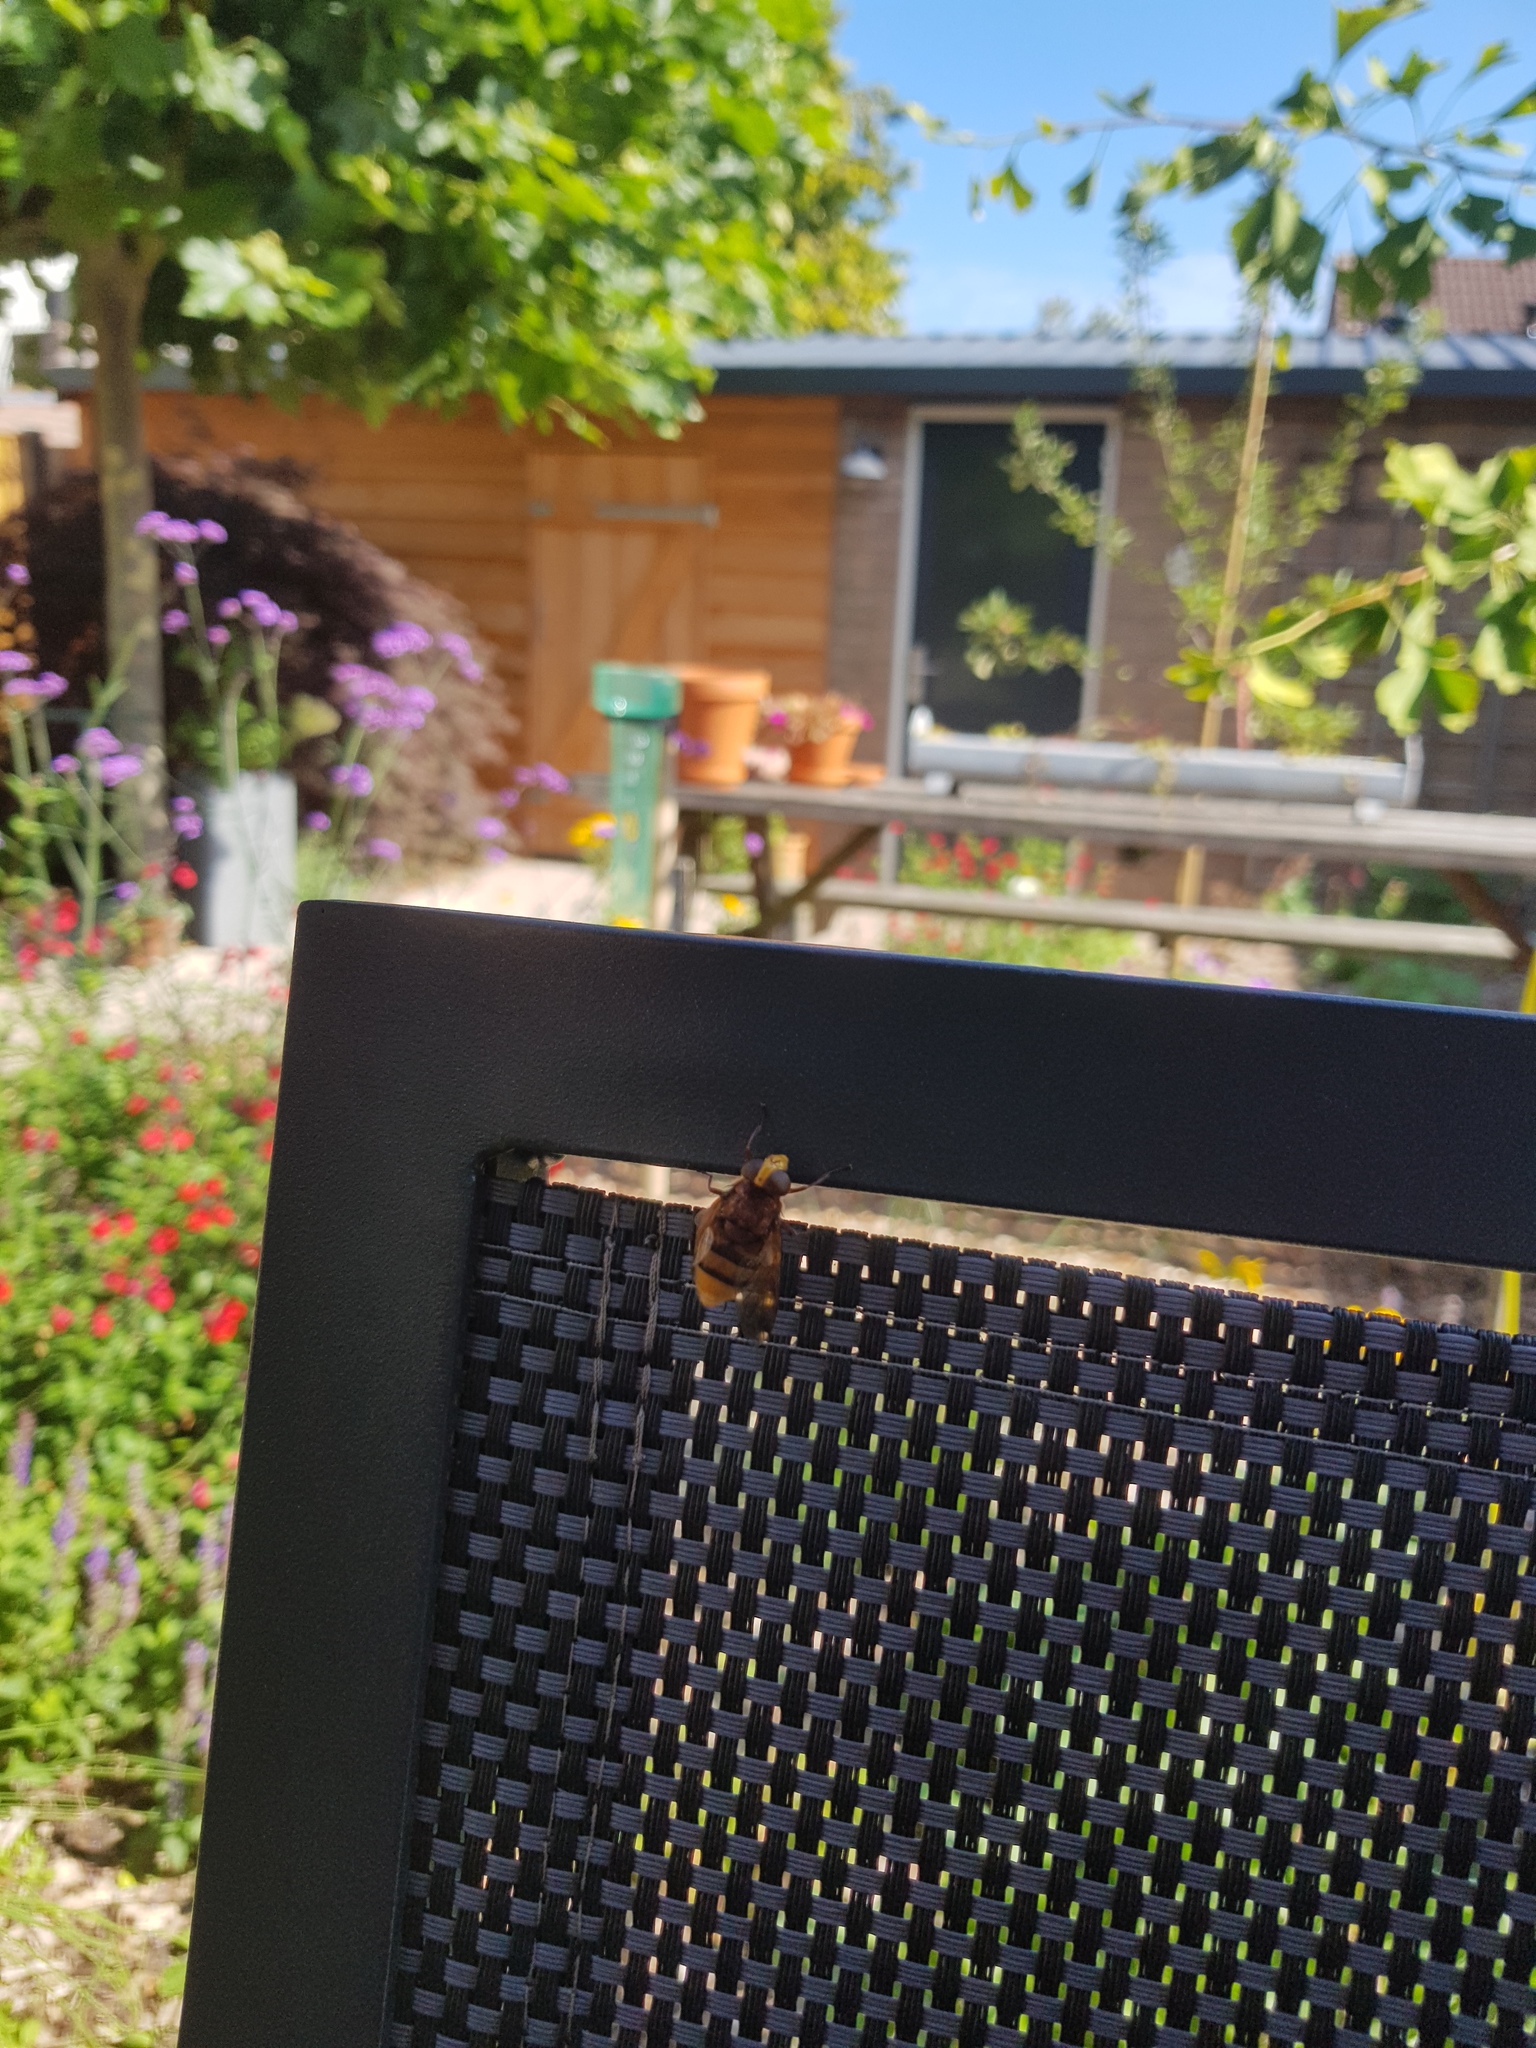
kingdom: Animalia
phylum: Arthropoda
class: Insecta
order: Diptera
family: Syrphidae
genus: Volucella
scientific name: Volucella zonaria
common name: Hornet hoverfly
